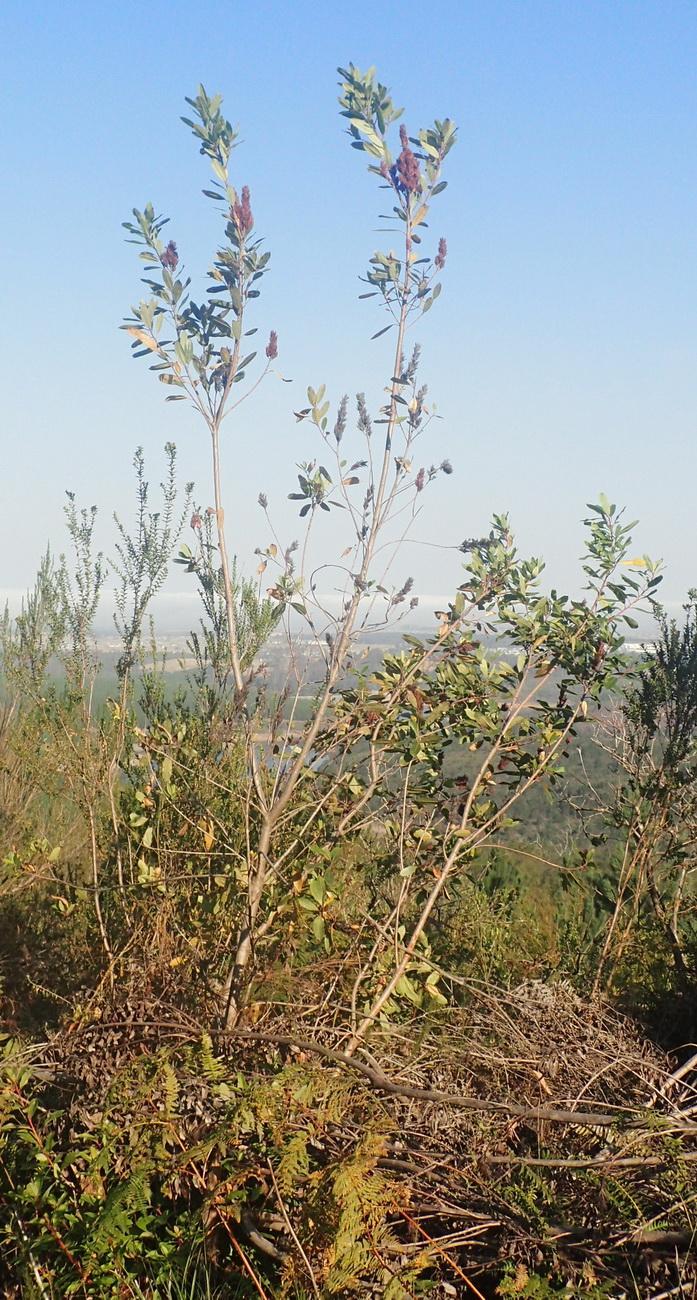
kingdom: Plantae
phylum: Tracheophyta
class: Magnoliopsida
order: Sapindales
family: Anacardiaceae
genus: Laurophyllus
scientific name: Laurophyllus capensis
